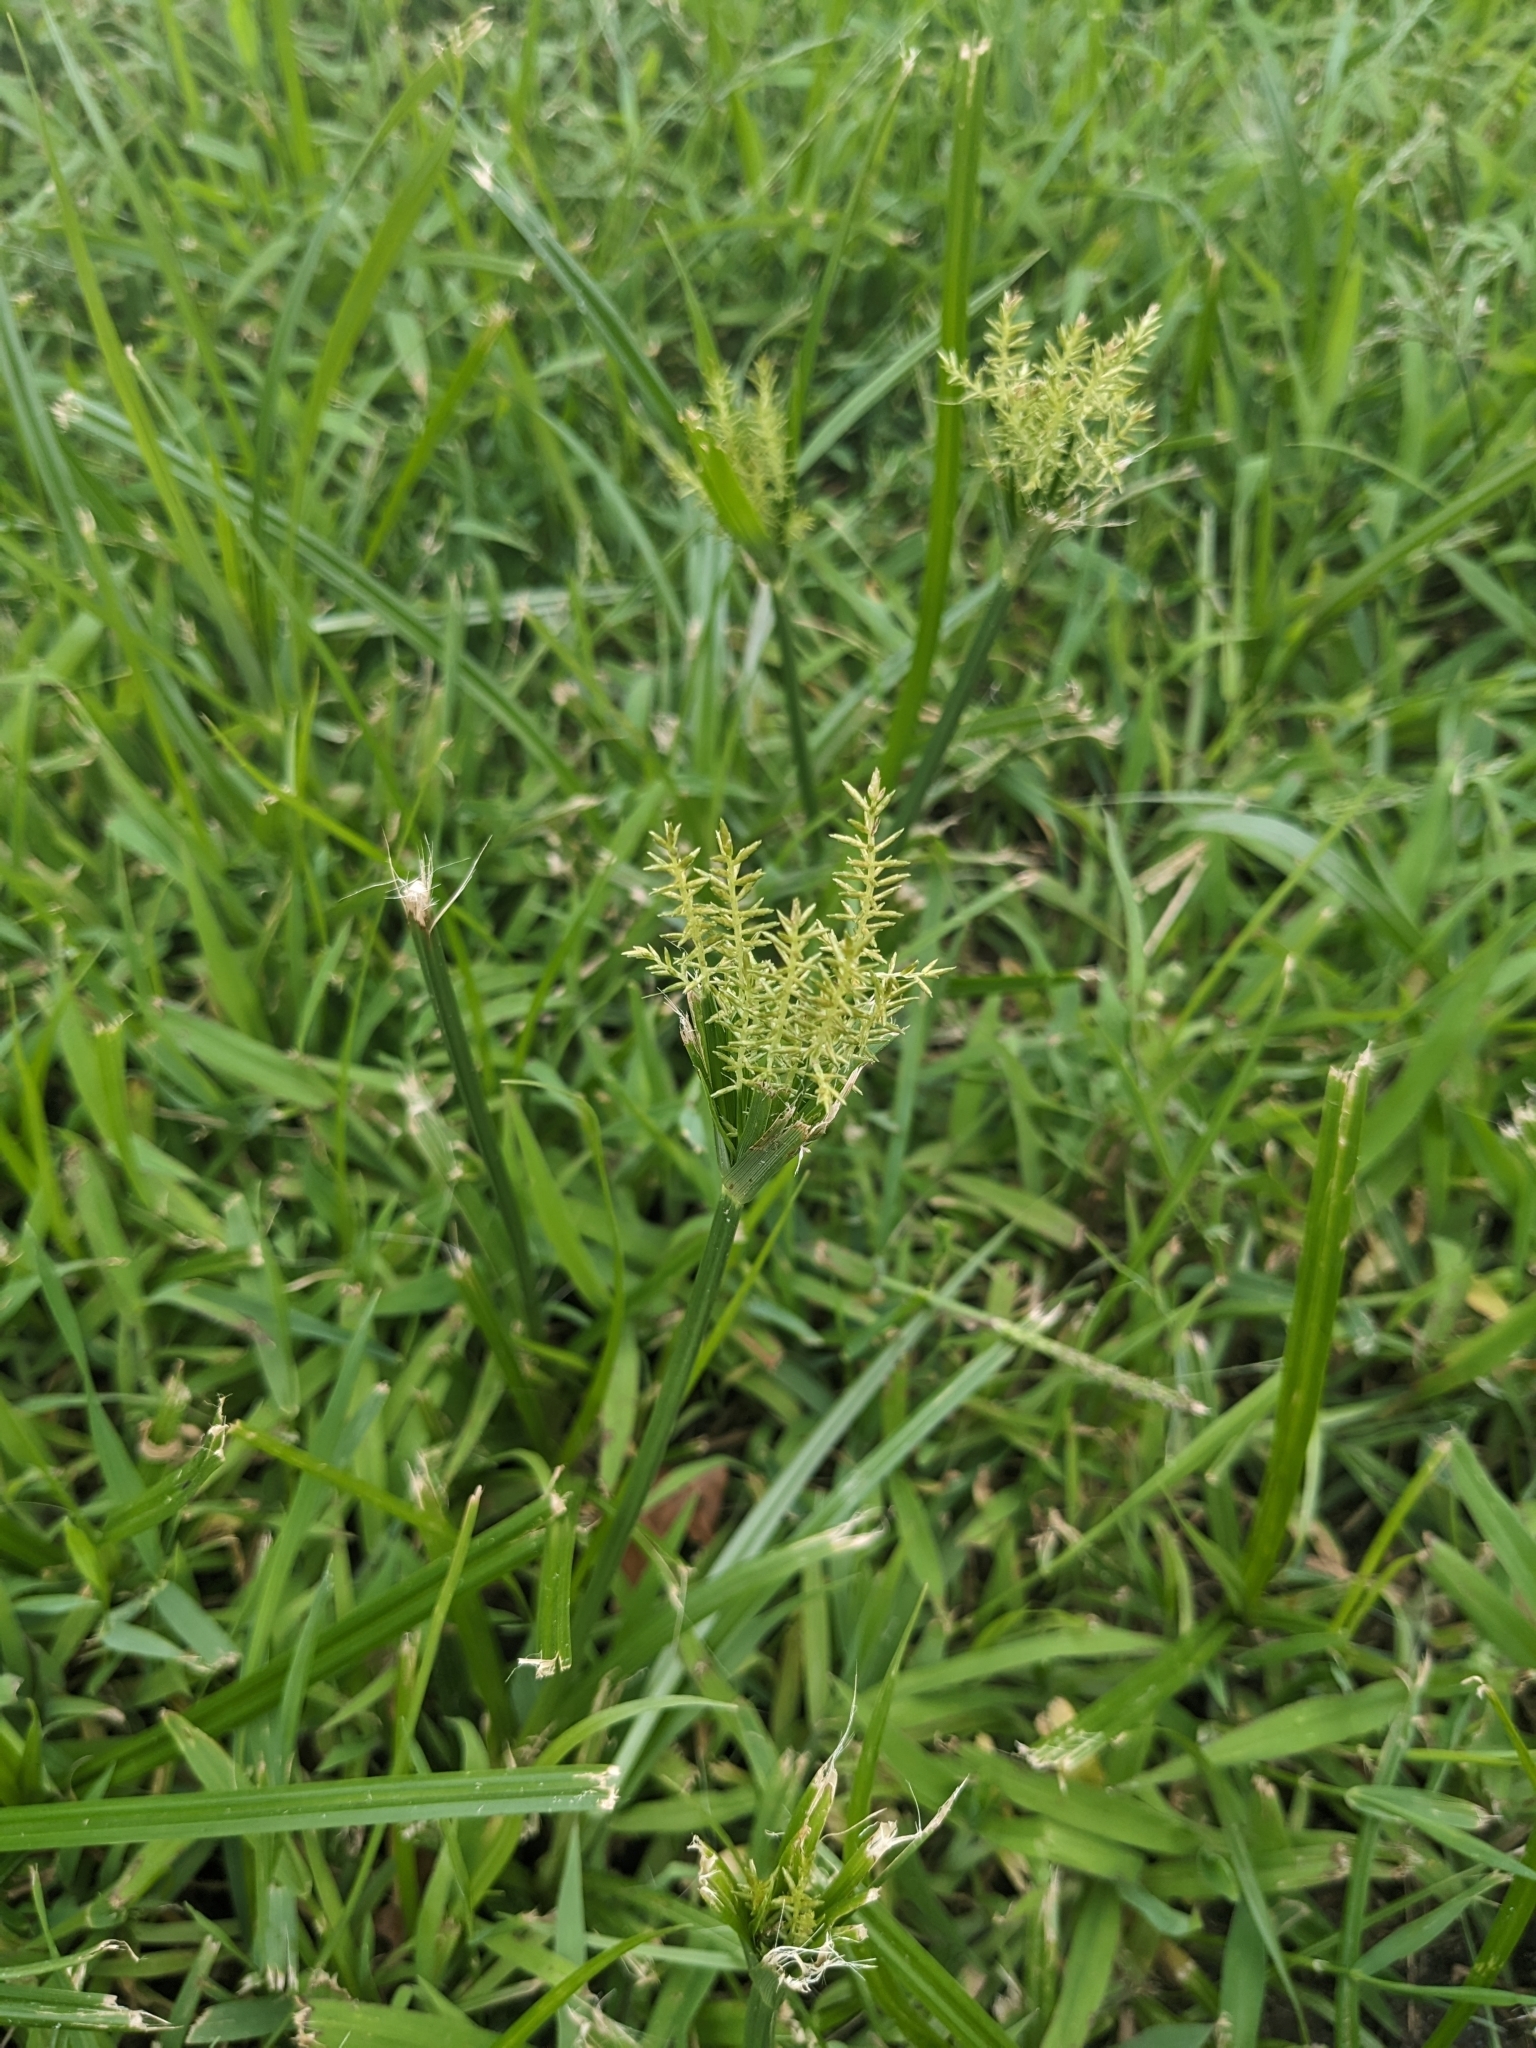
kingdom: Plantae
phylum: Tracheophyta
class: Liliopsida
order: Poales
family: Cyperaceae
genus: Cyperus
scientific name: Cyperus esculentus
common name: Yellow nutsedge
